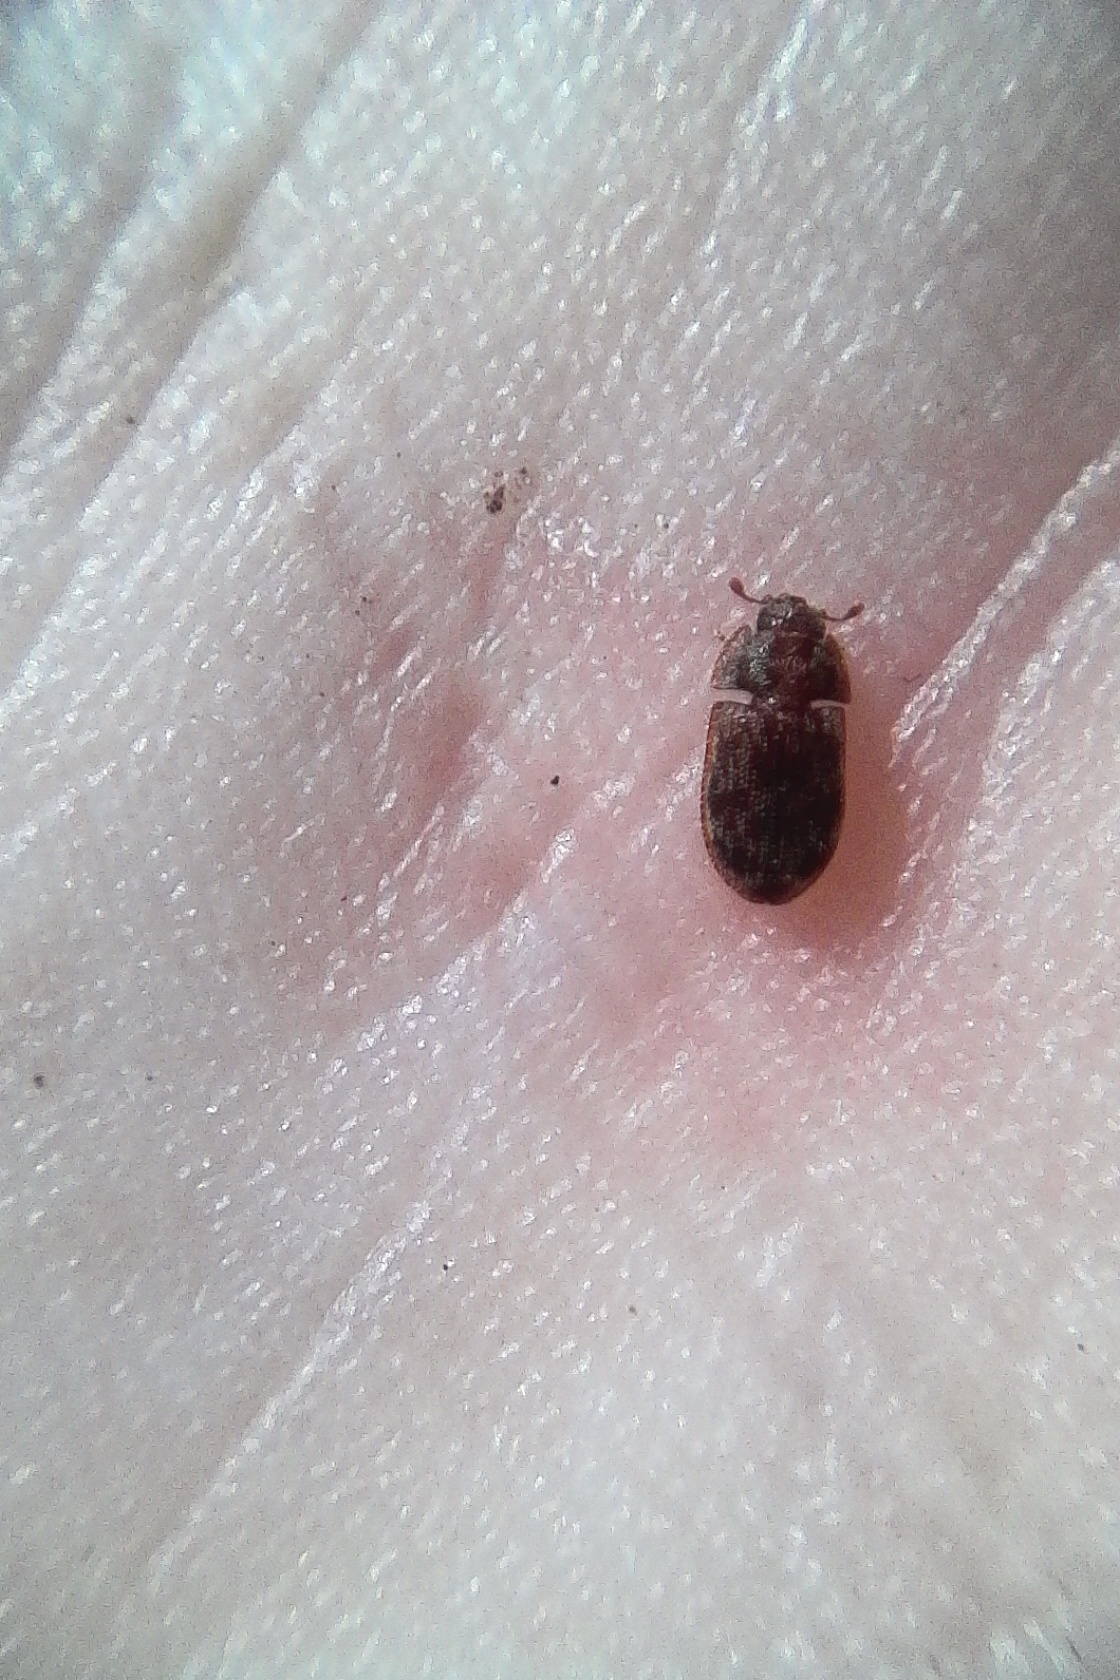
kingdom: Animalia
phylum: Arthropoda
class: Insecta
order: Coleoptera
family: Lophocateridae
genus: Neaspis
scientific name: Neaspis variegata
